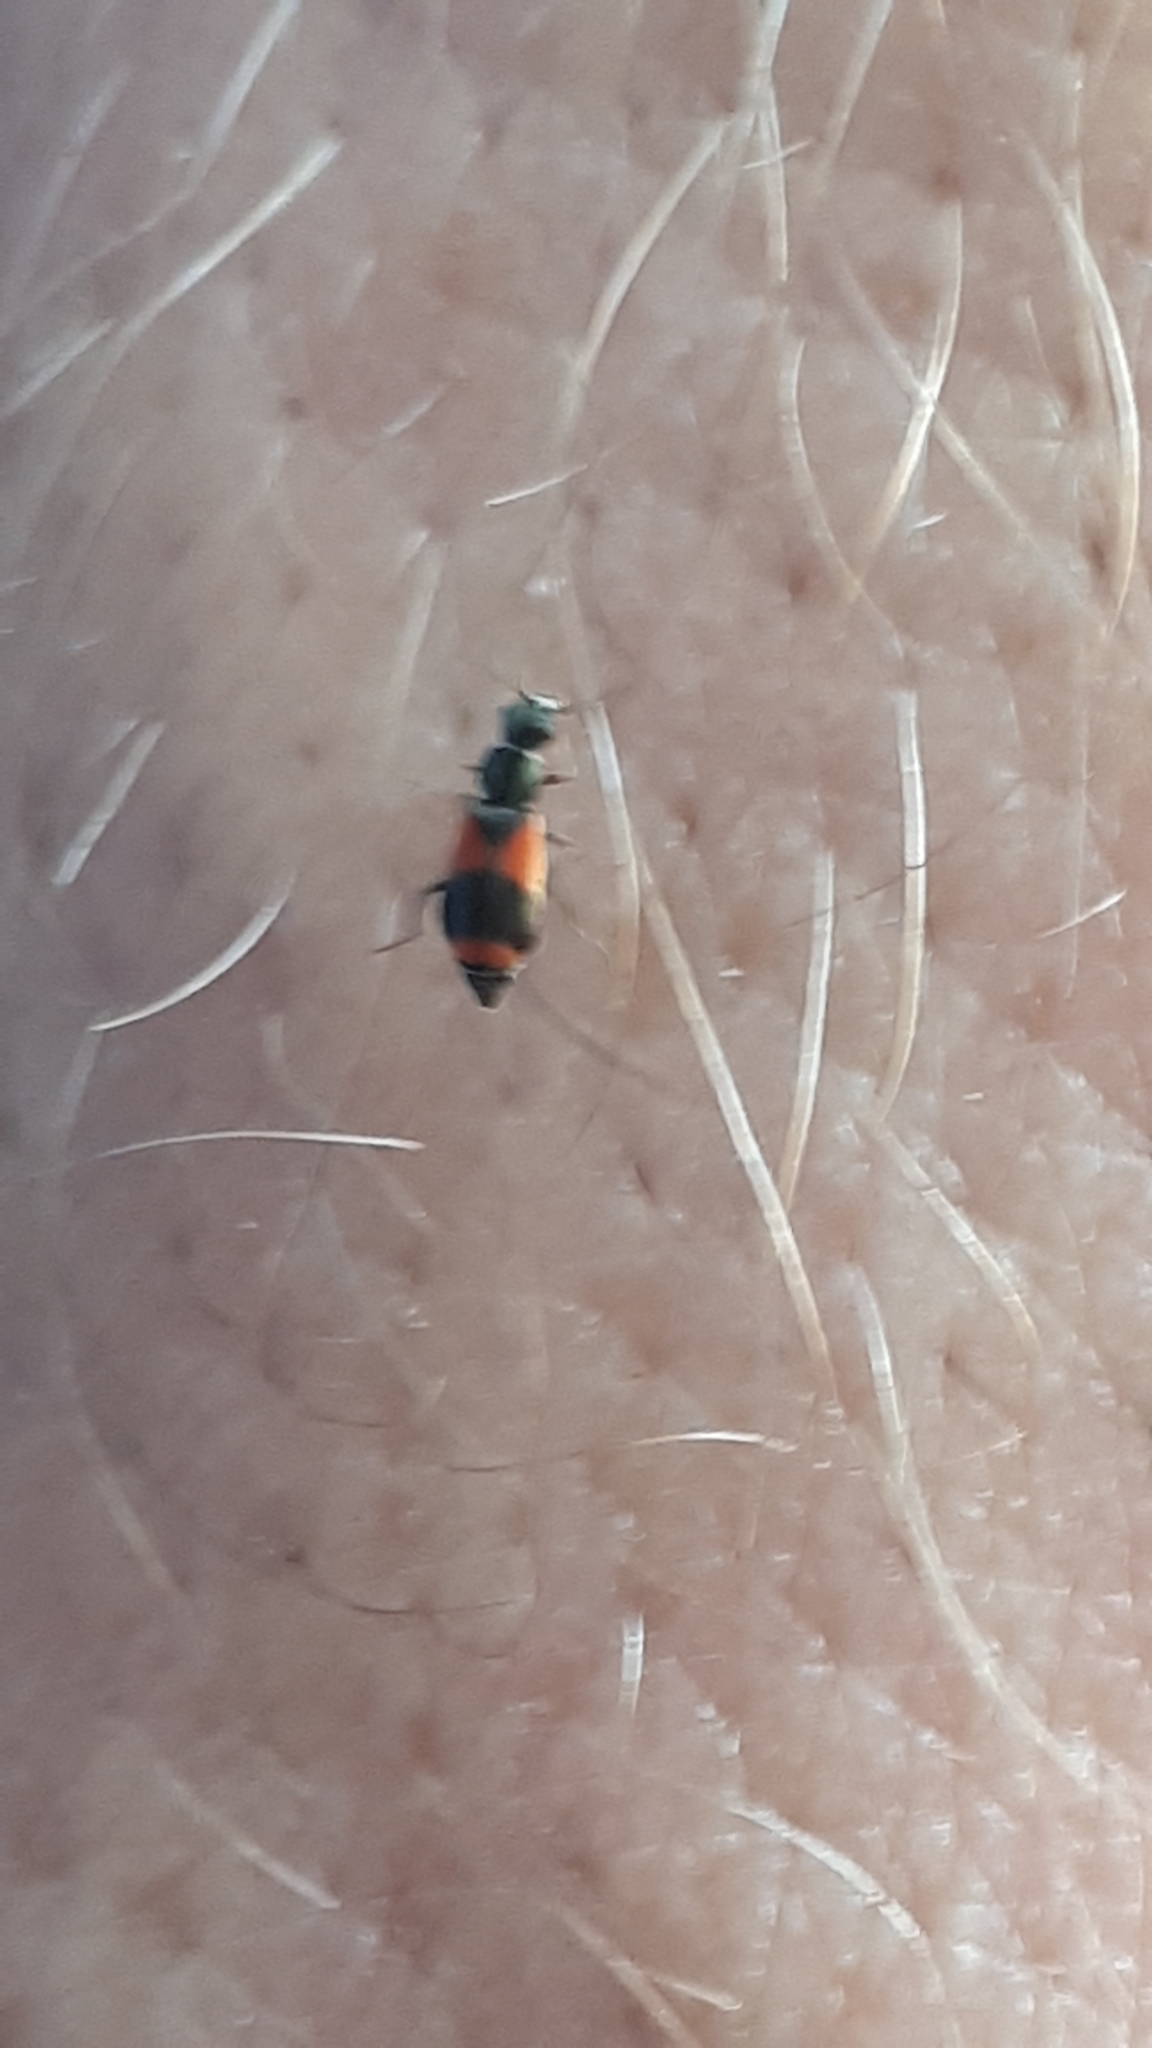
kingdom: Animalia
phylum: Arthropoda
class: Insecta
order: Coleoptera
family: Melyridae
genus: Anthocomus
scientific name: Anthocomus equestris
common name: Black-banded soft-winged flower beetle
